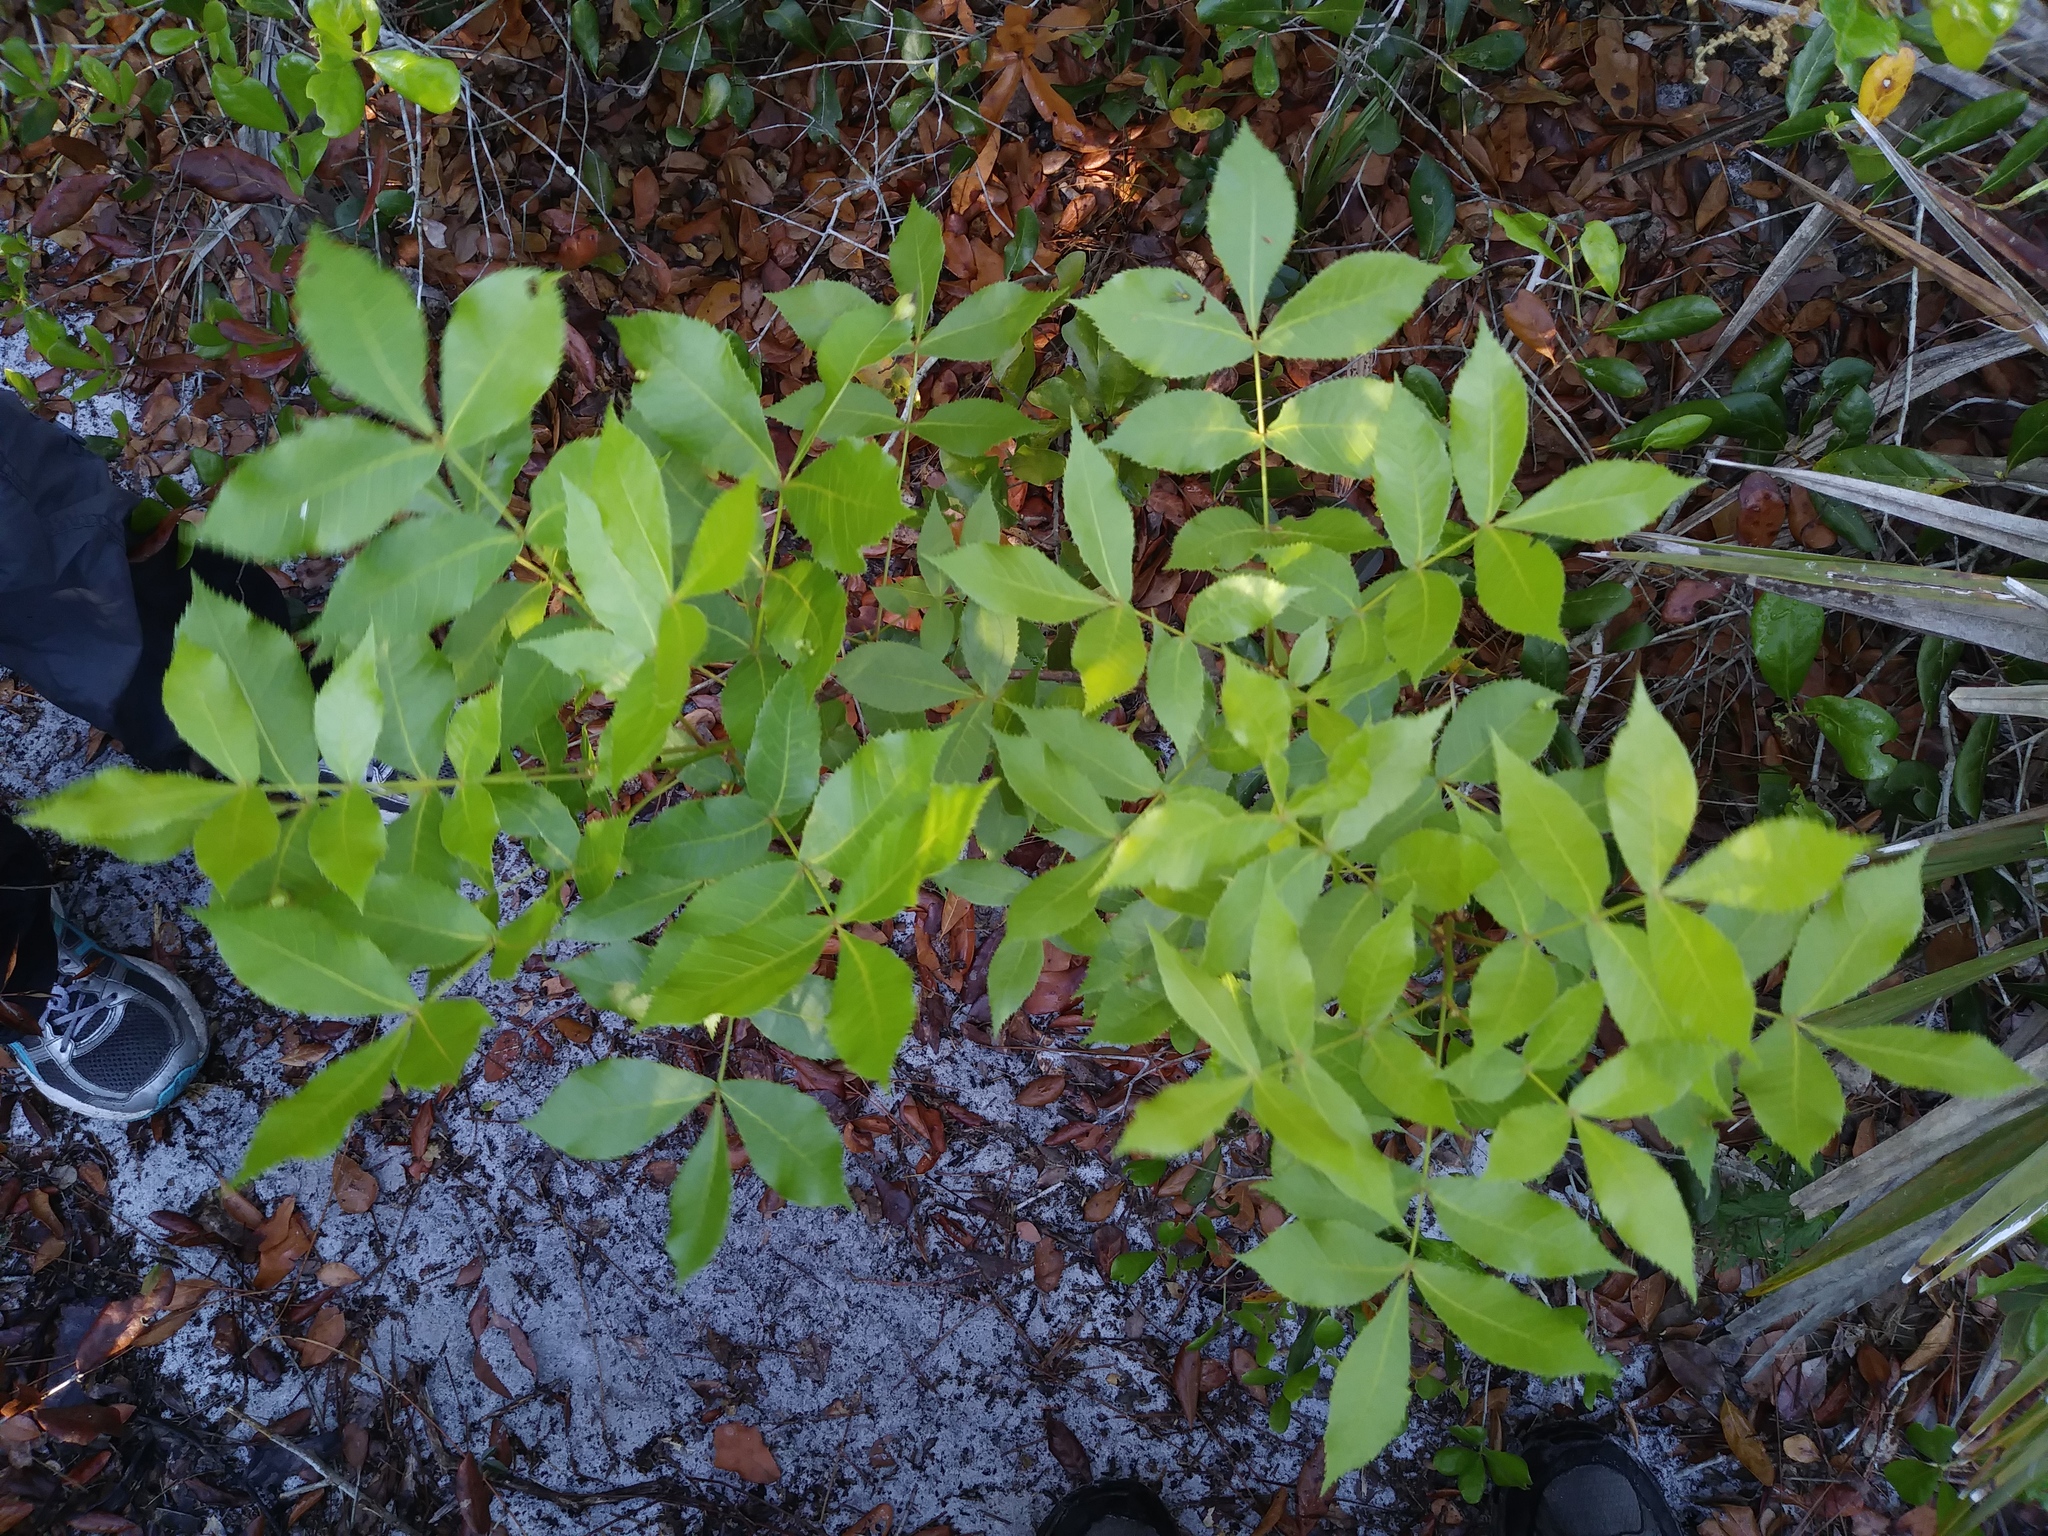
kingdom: Plantae
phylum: Tracheophyta
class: Magnoliopsida
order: Fagales
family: Juglandaceae
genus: Carya
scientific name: Carya floridana
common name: Scrub hickory
